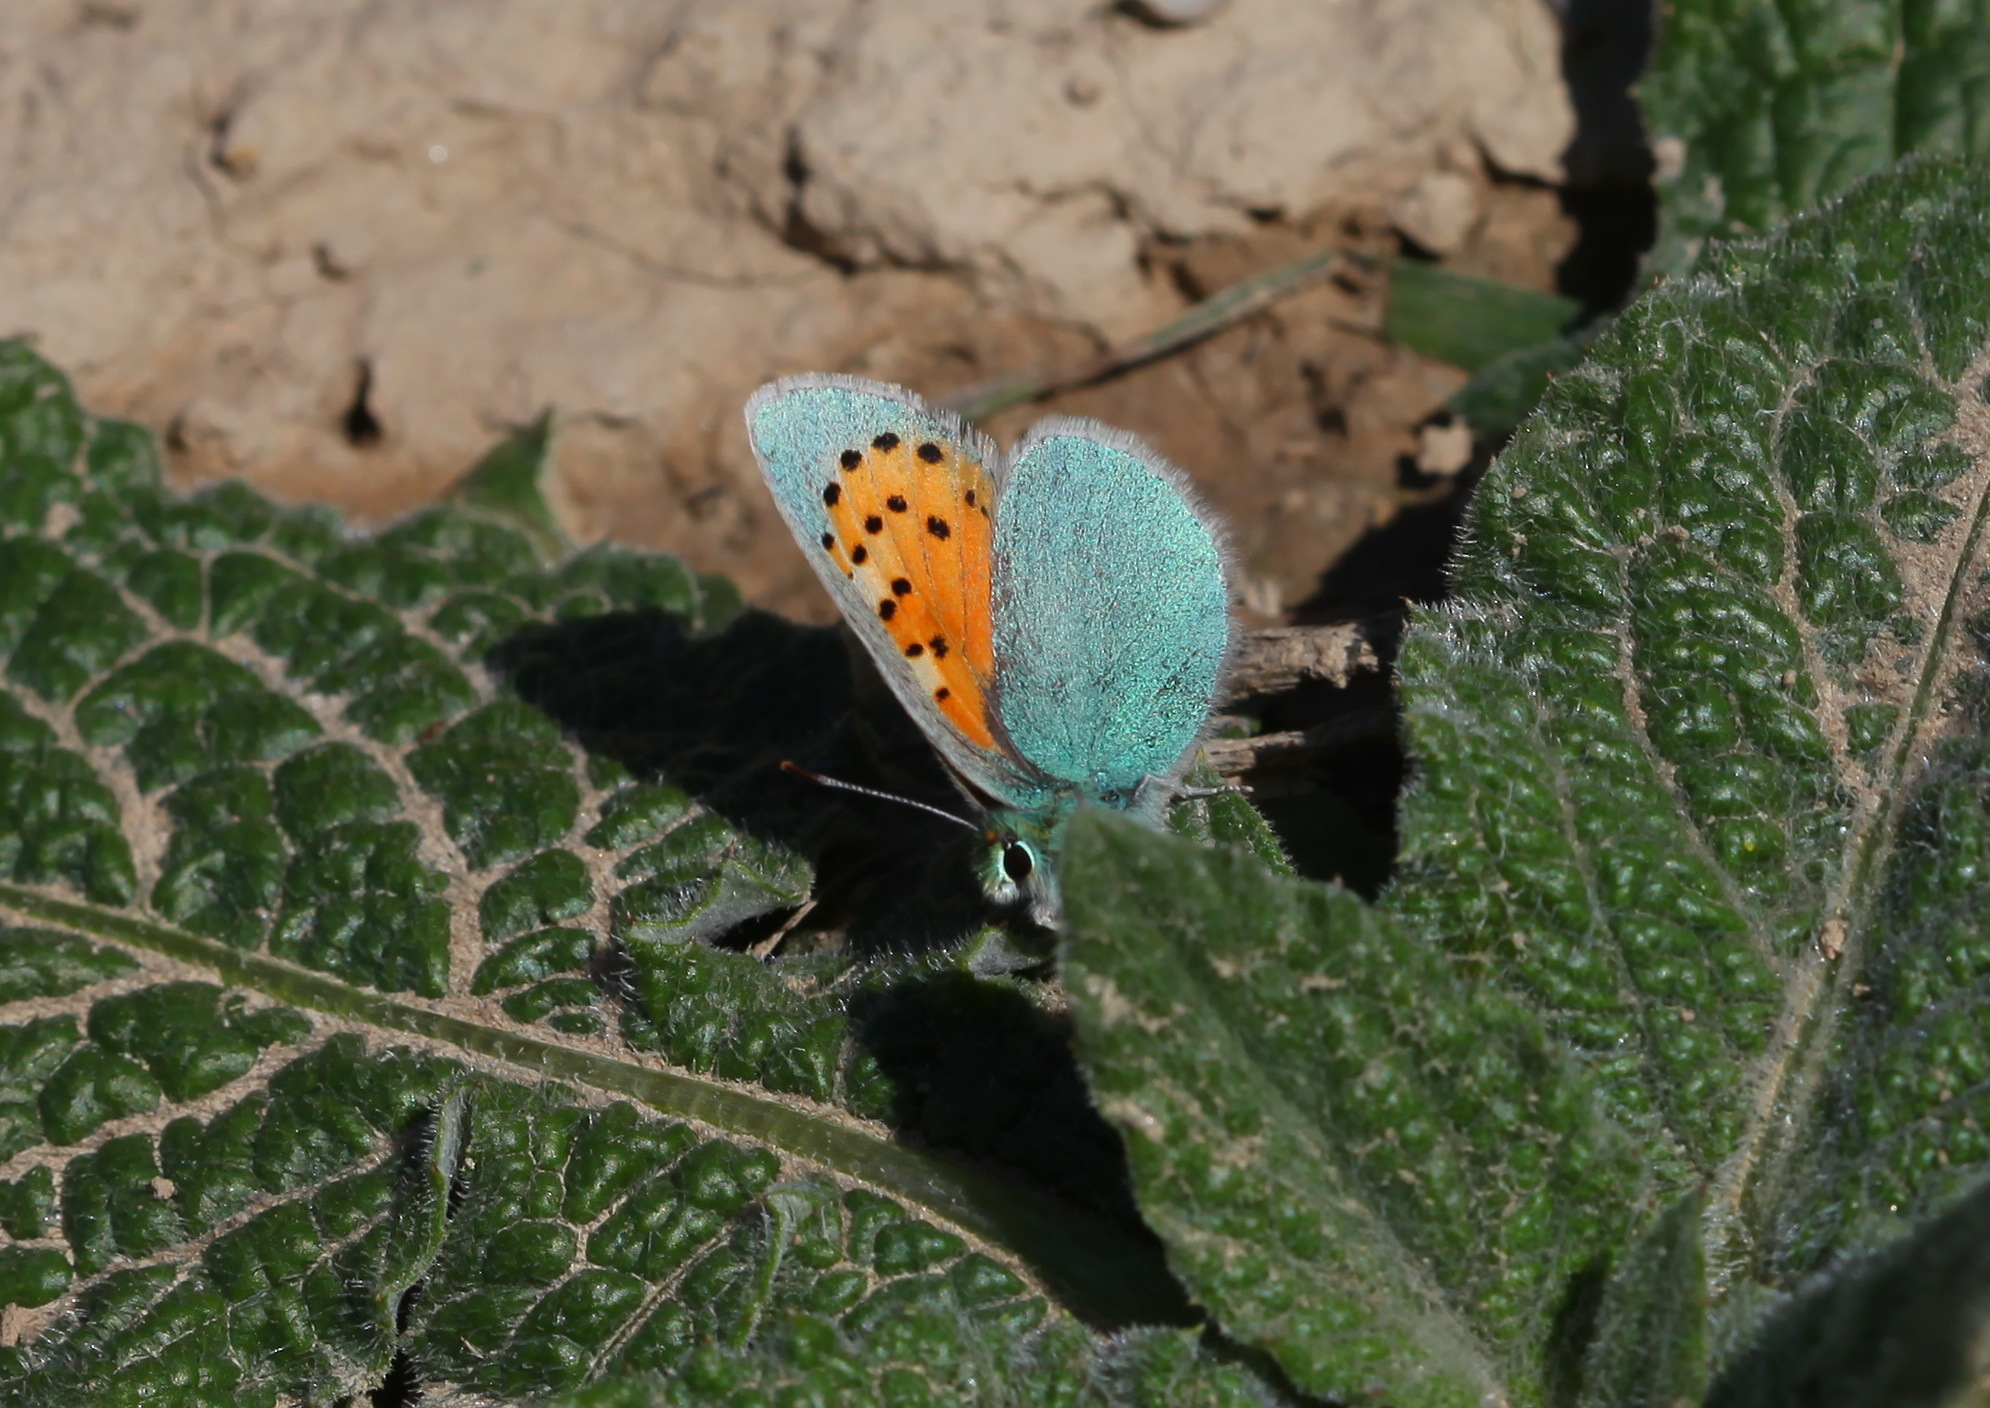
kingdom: Animalia
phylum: Arthropoda
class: Insecta
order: Lepidoptera
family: Lycaenidae
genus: Tomares
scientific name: Tomares fedtschenkoi
